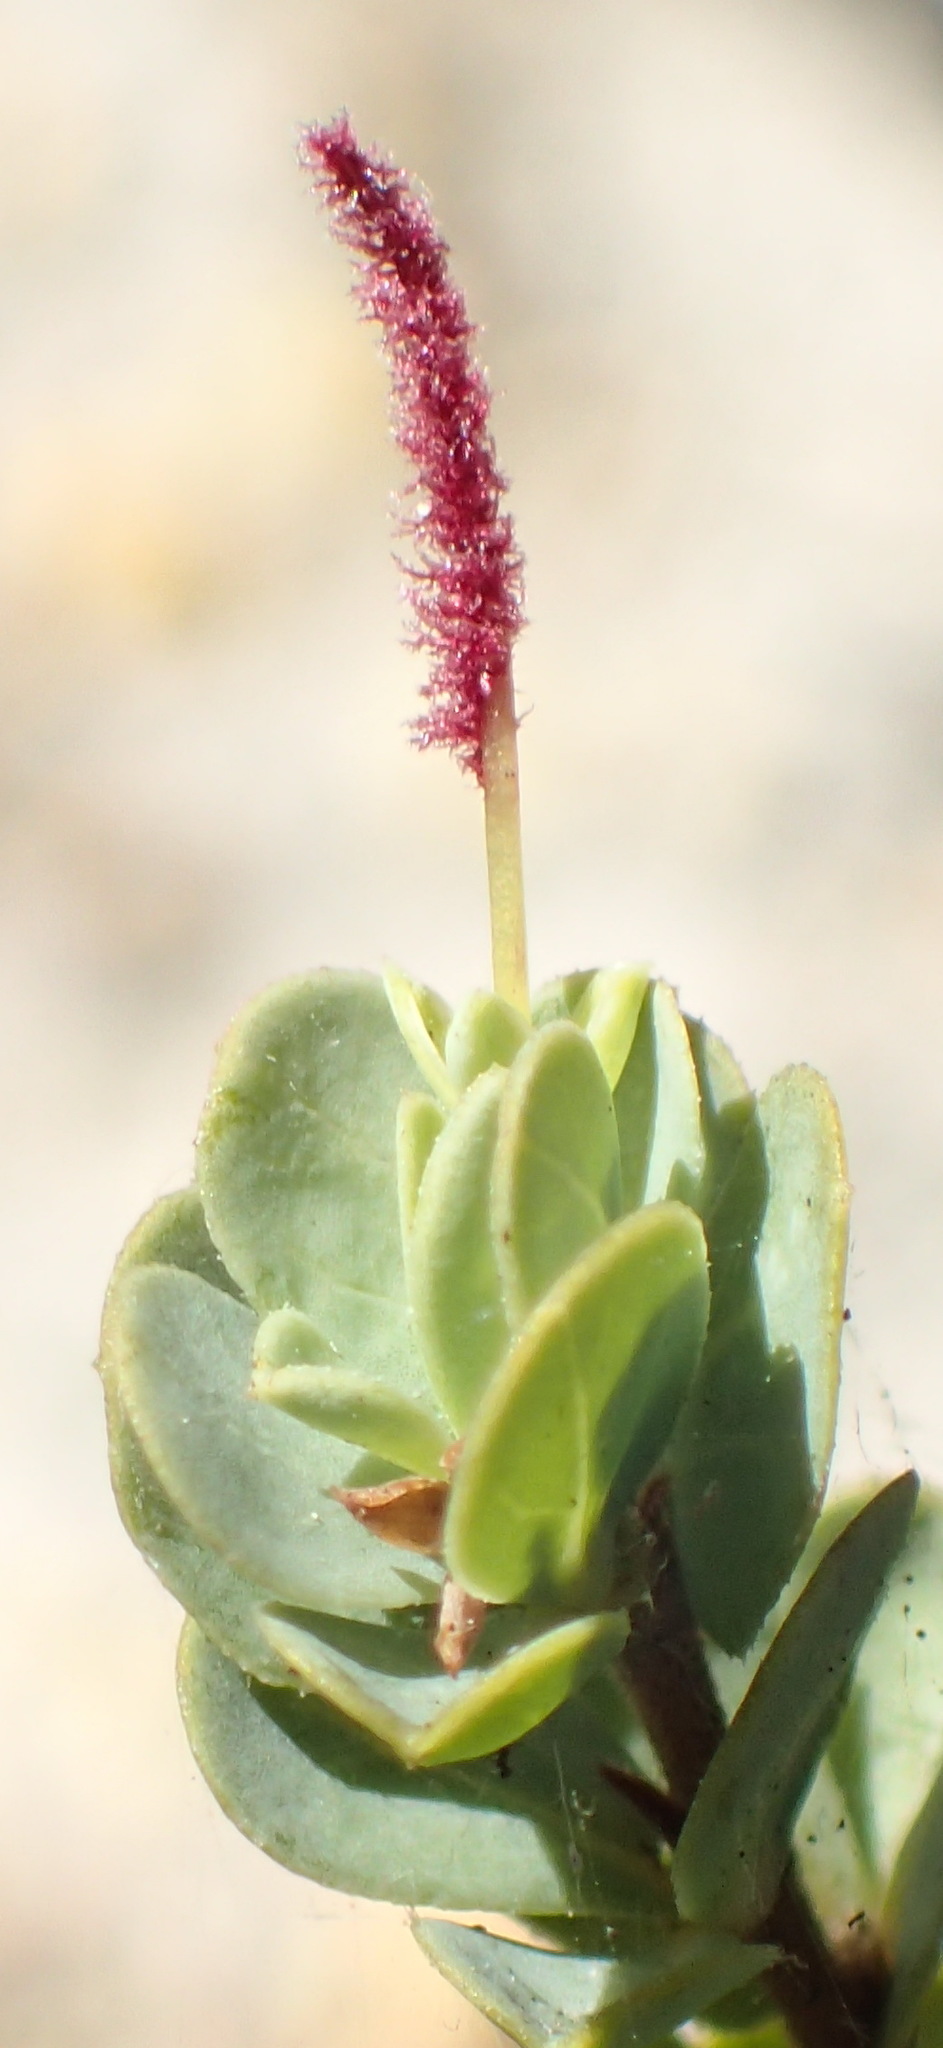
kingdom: Plantae
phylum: Tracheophyta
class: Magnoliopsida
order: Rosales
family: Rosaceae
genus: Cliffortia
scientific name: Cliffortia obcordata
